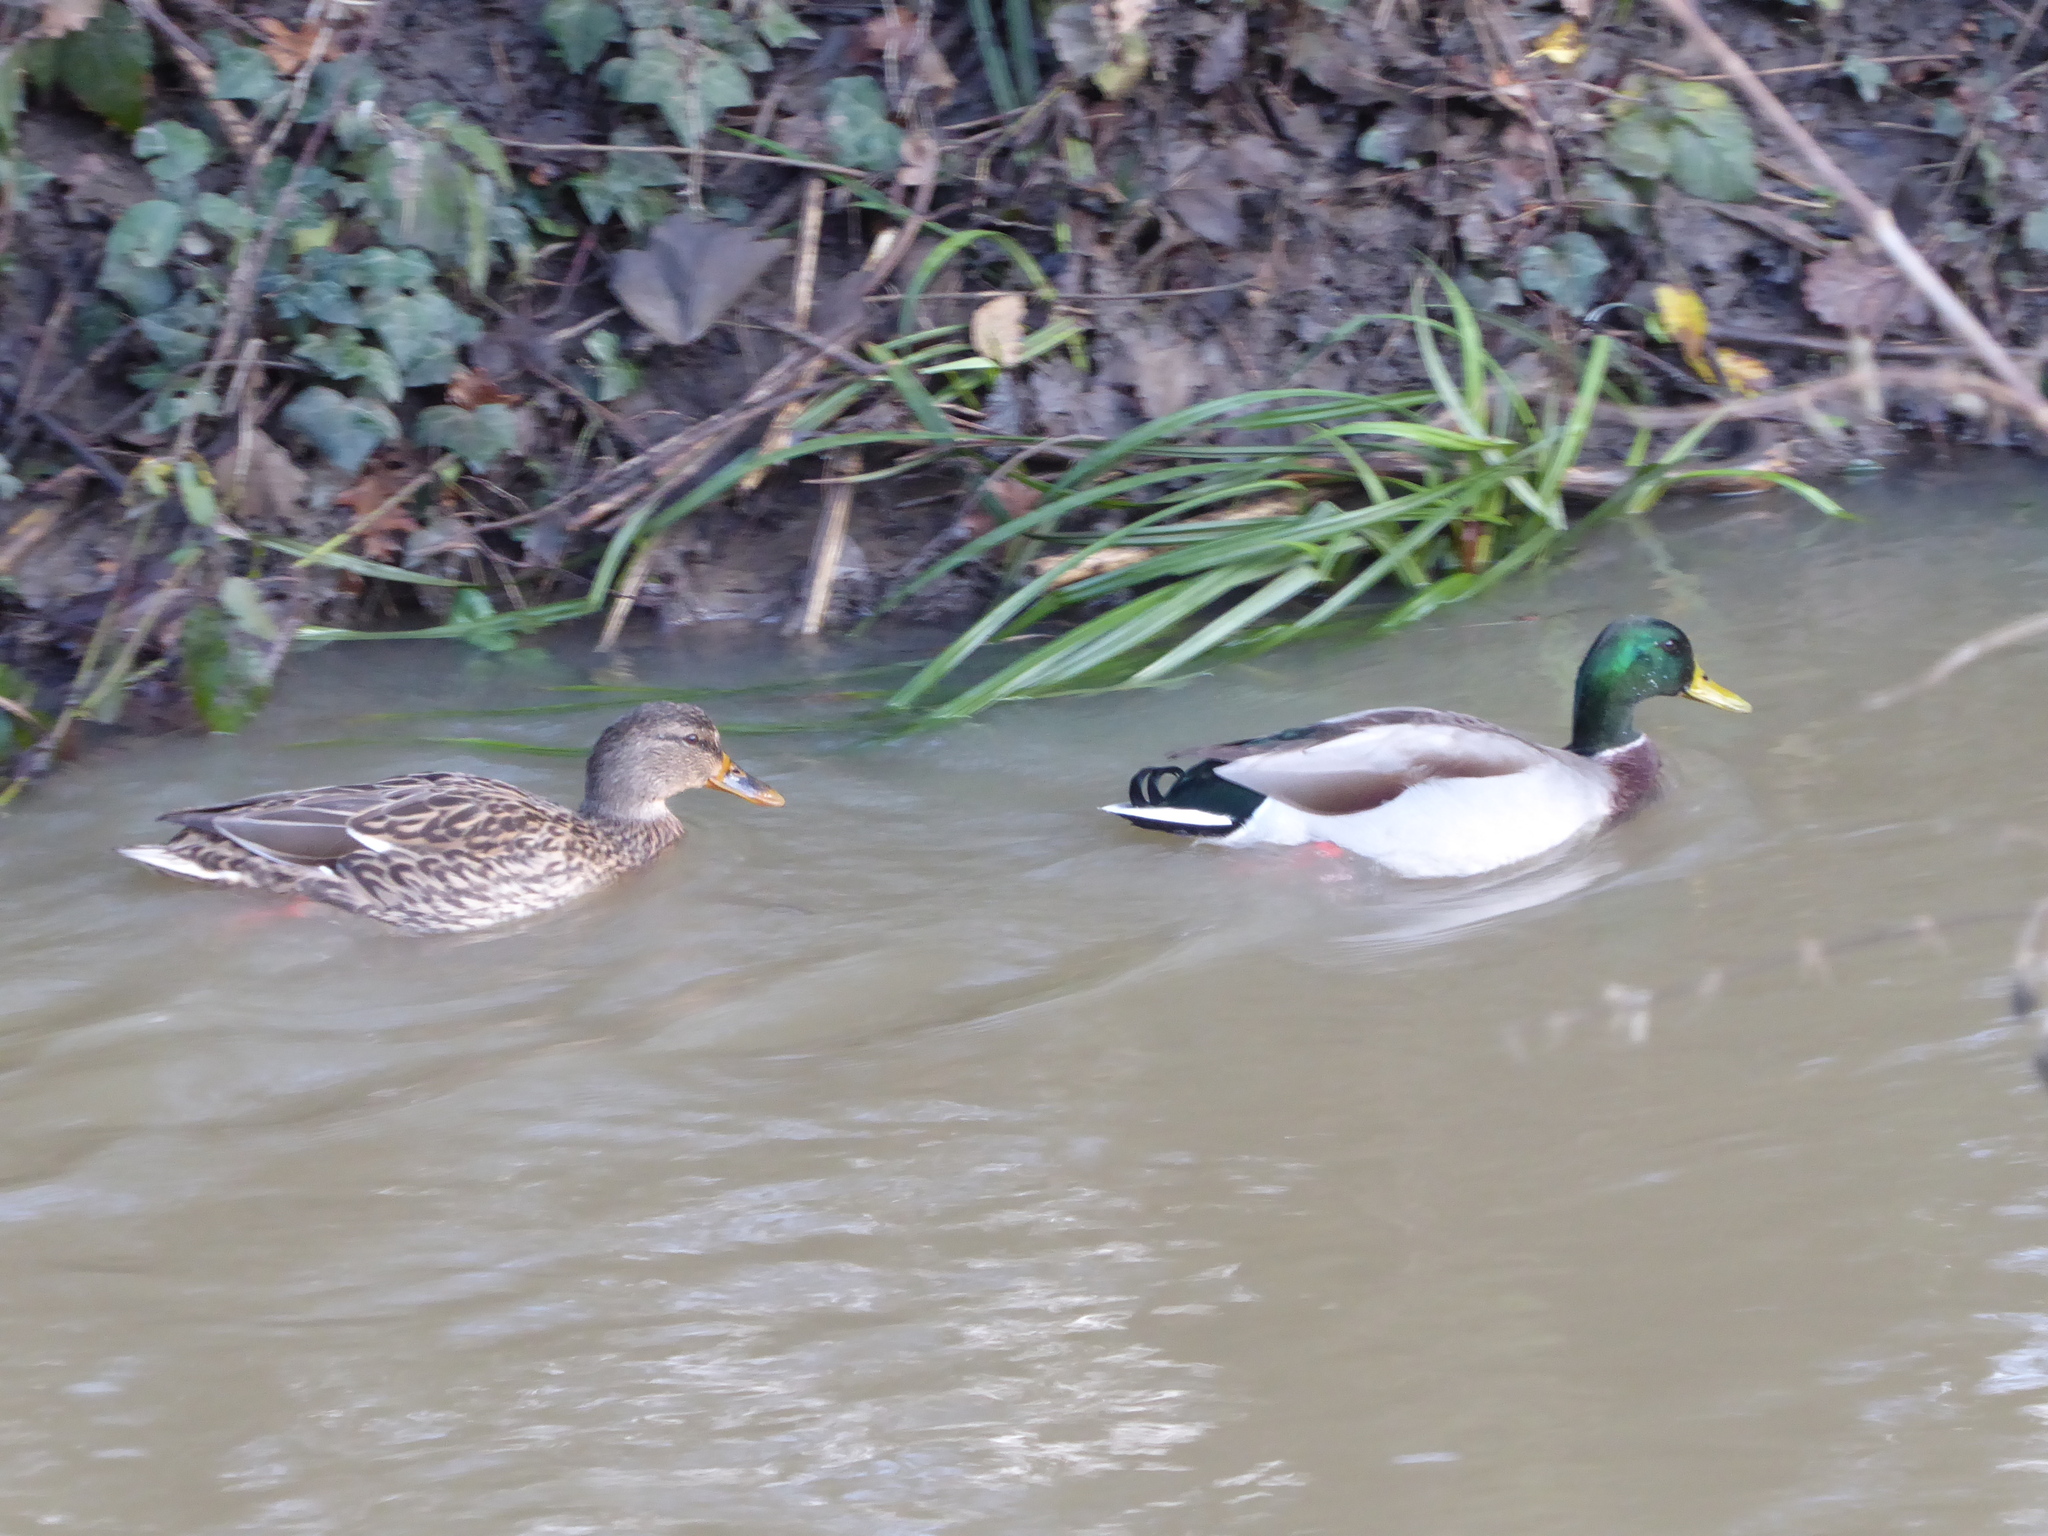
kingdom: Animalia
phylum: Chordata
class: Aves
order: Anseriformes
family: Anatidae
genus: Anas
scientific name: Anas platyrhynchos
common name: Mallard
